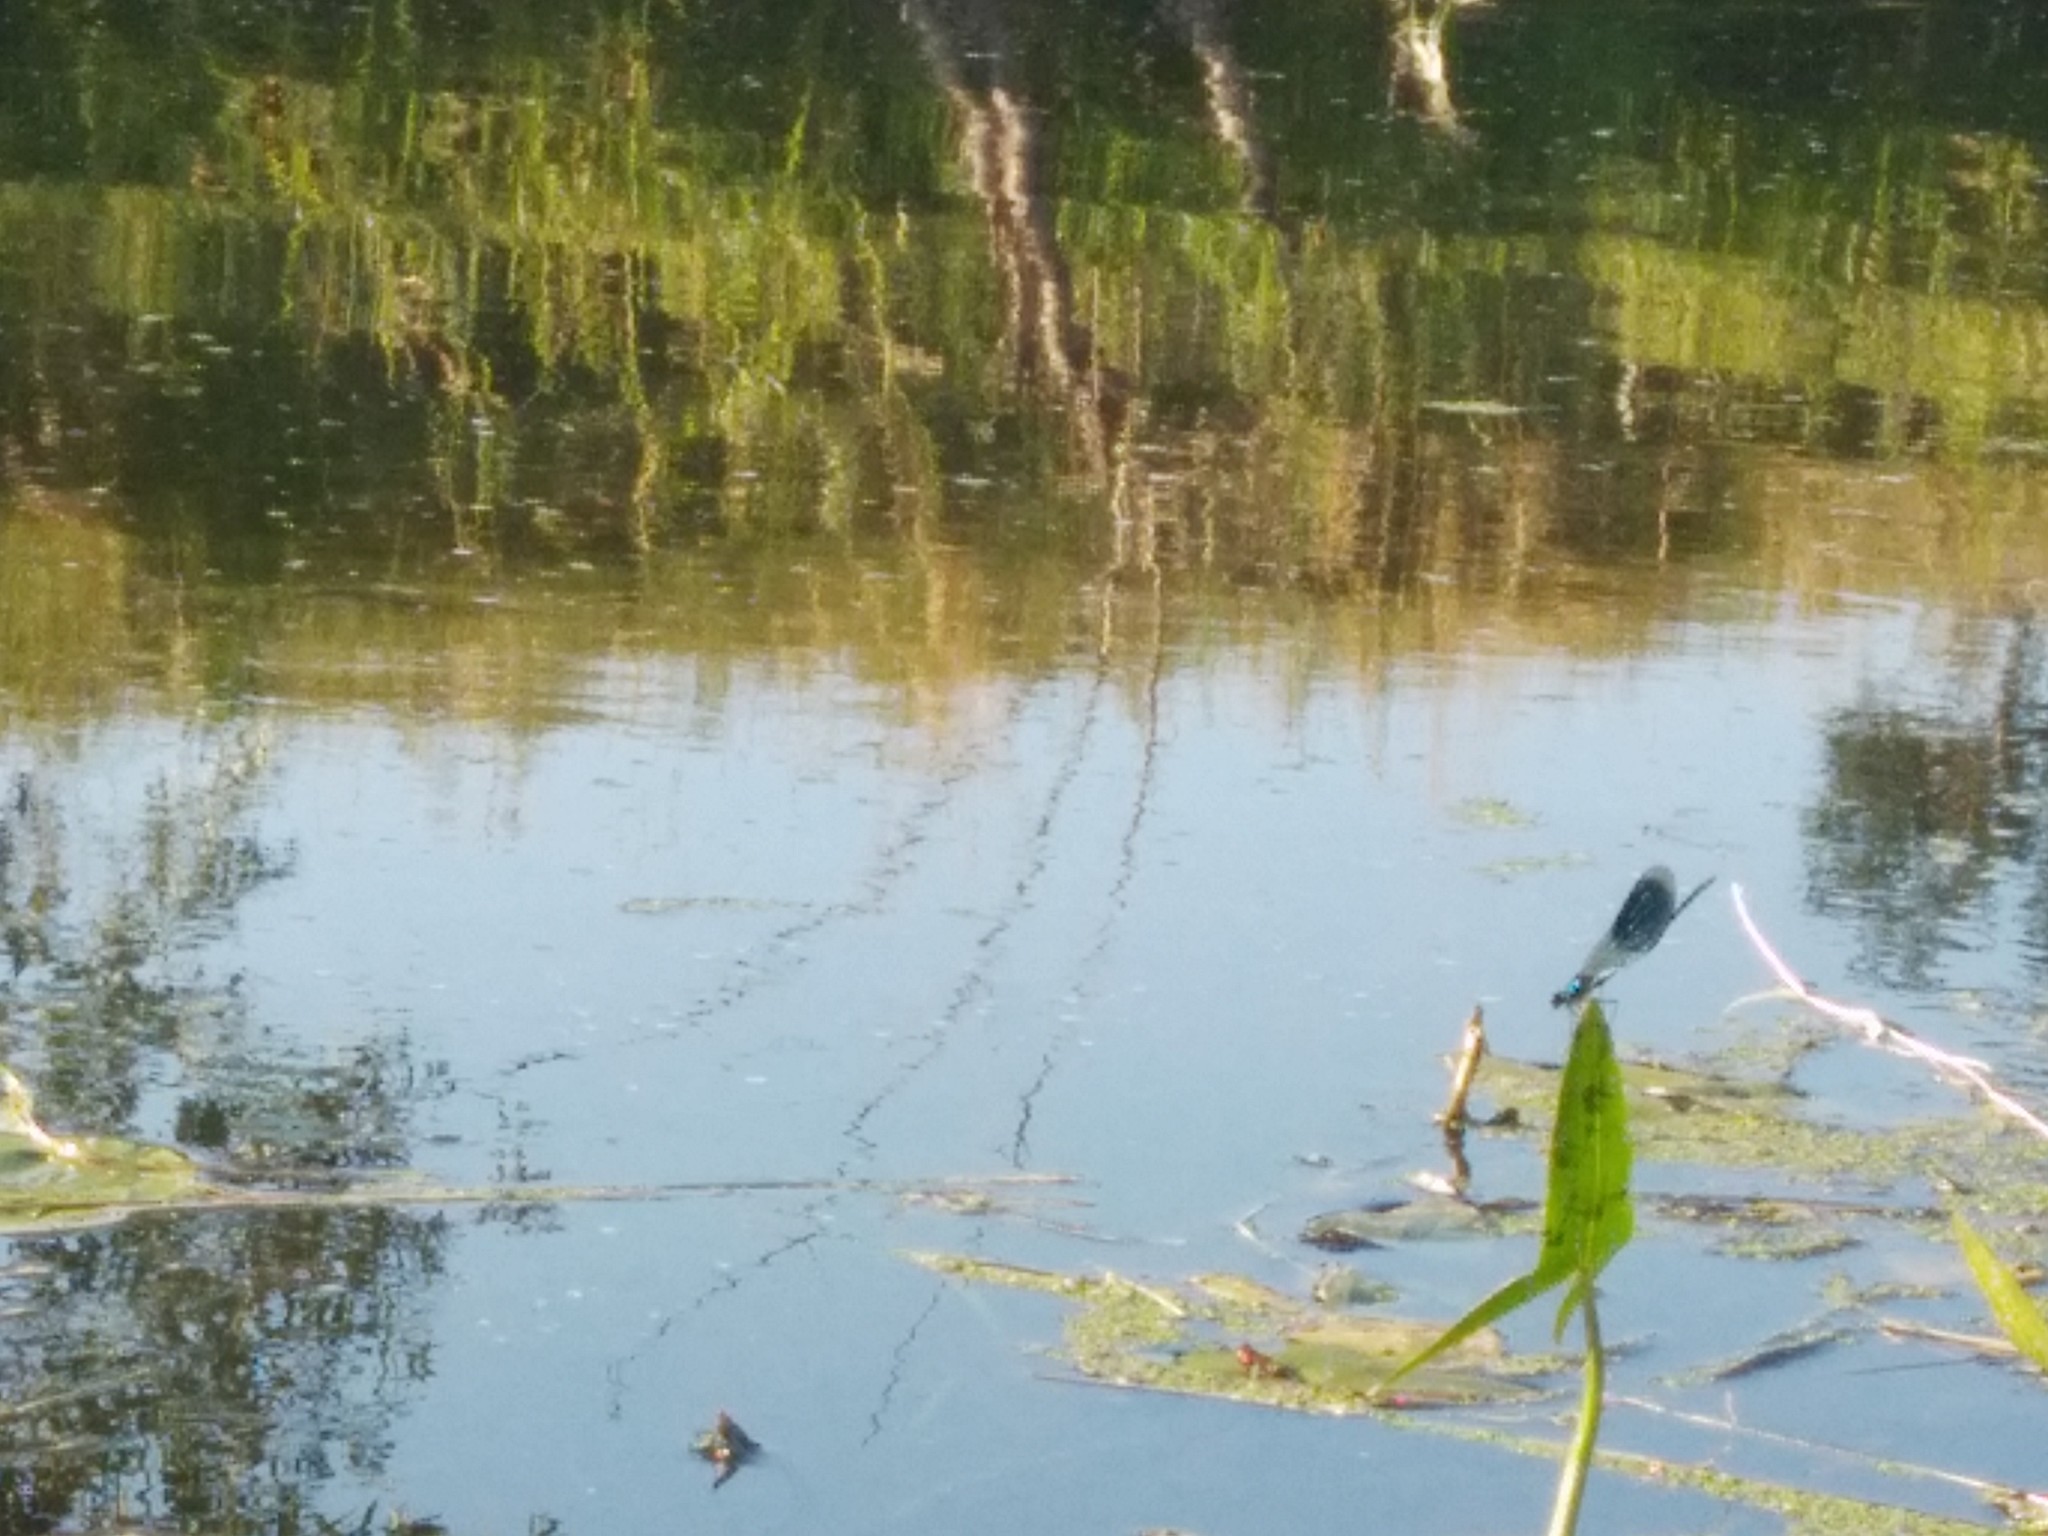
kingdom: Animalia
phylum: Arthropoda
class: Insecta
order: Odonata
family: Calopterygidae
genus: Calopteryx
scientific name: Calopteryx splendens
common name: Banded demoiselle
